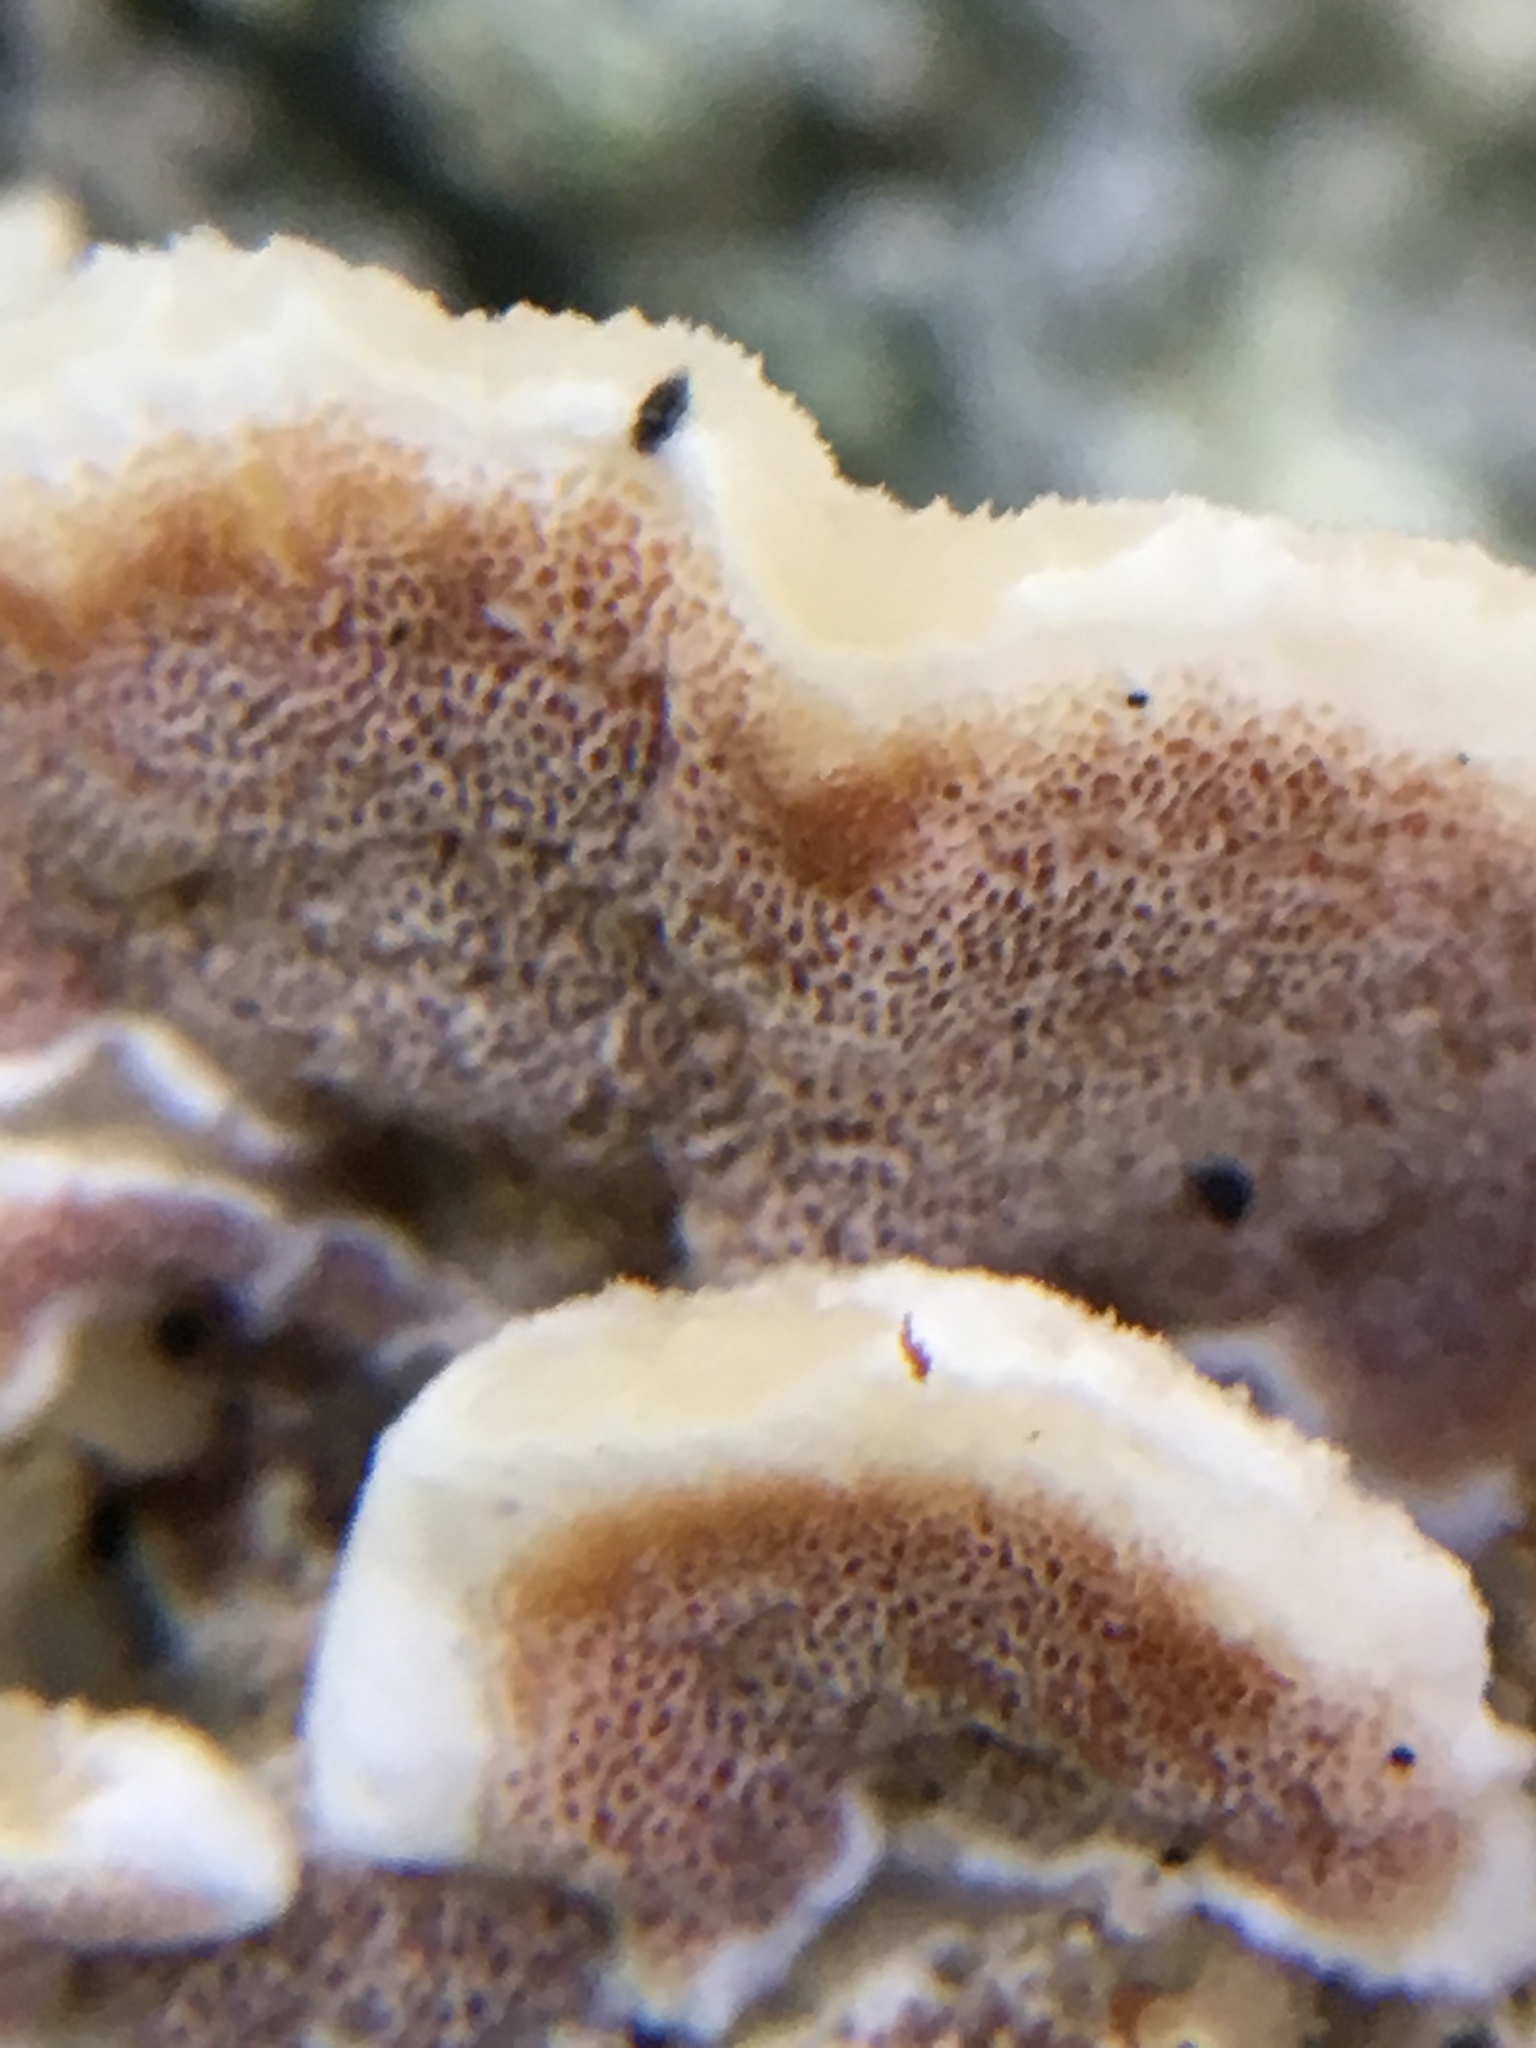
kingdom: Fungi
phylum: Basidiomycota
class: Agaricomycetes
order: Polyporales
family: Irpicaceae
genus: Vitreoporus
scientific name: Vitreoporus dichrous
